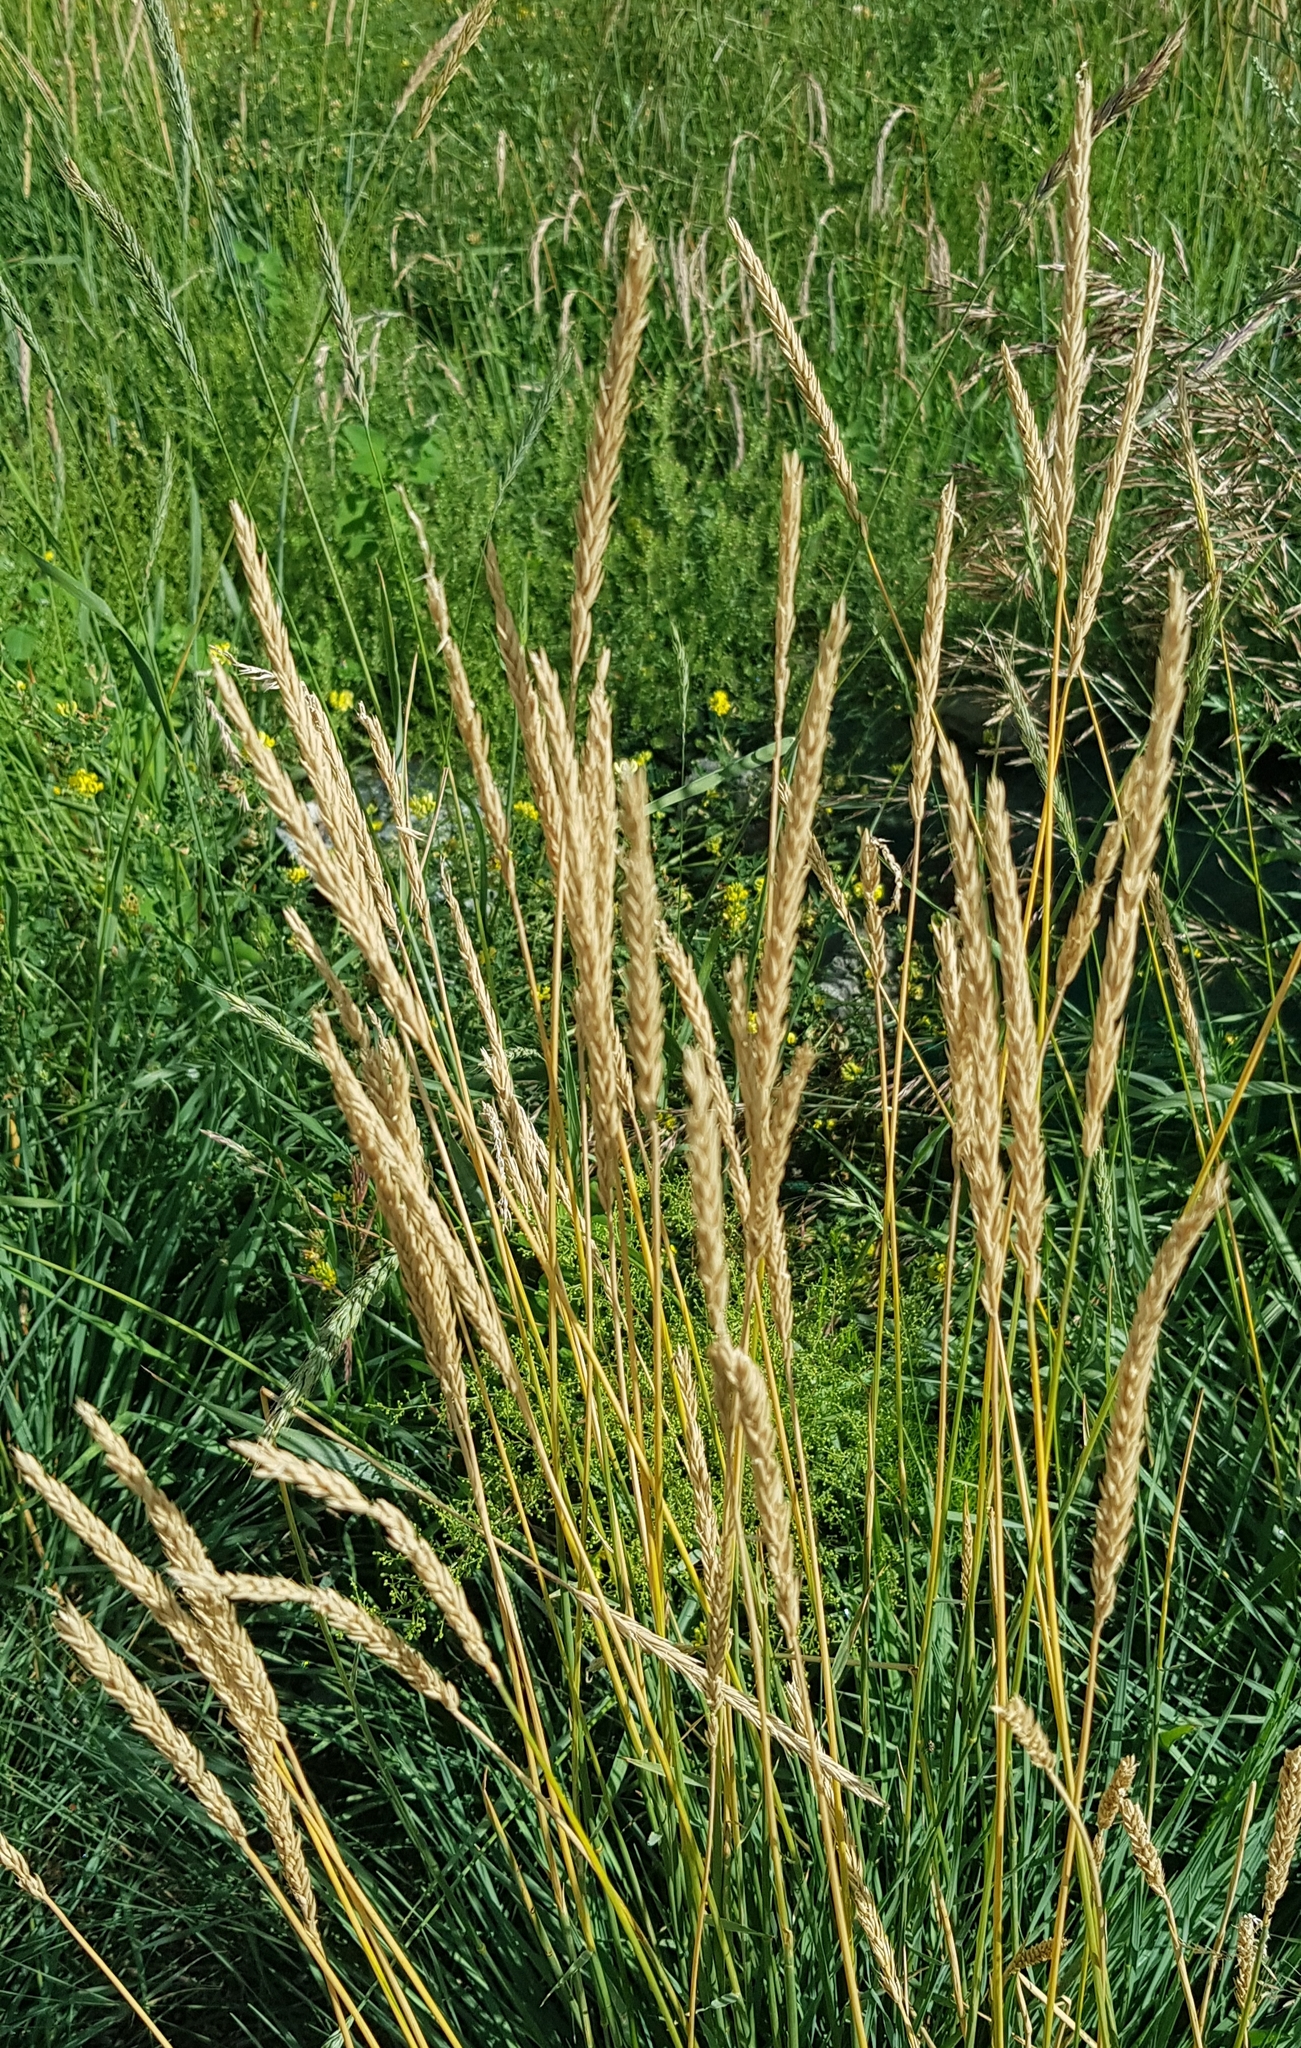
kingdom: Plantae
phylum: Tracheophyta
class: Liliopsida
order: Poales
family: Poaceae
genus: Koeleria
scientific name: Koeleria macrantha
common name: Crested hair-grass
